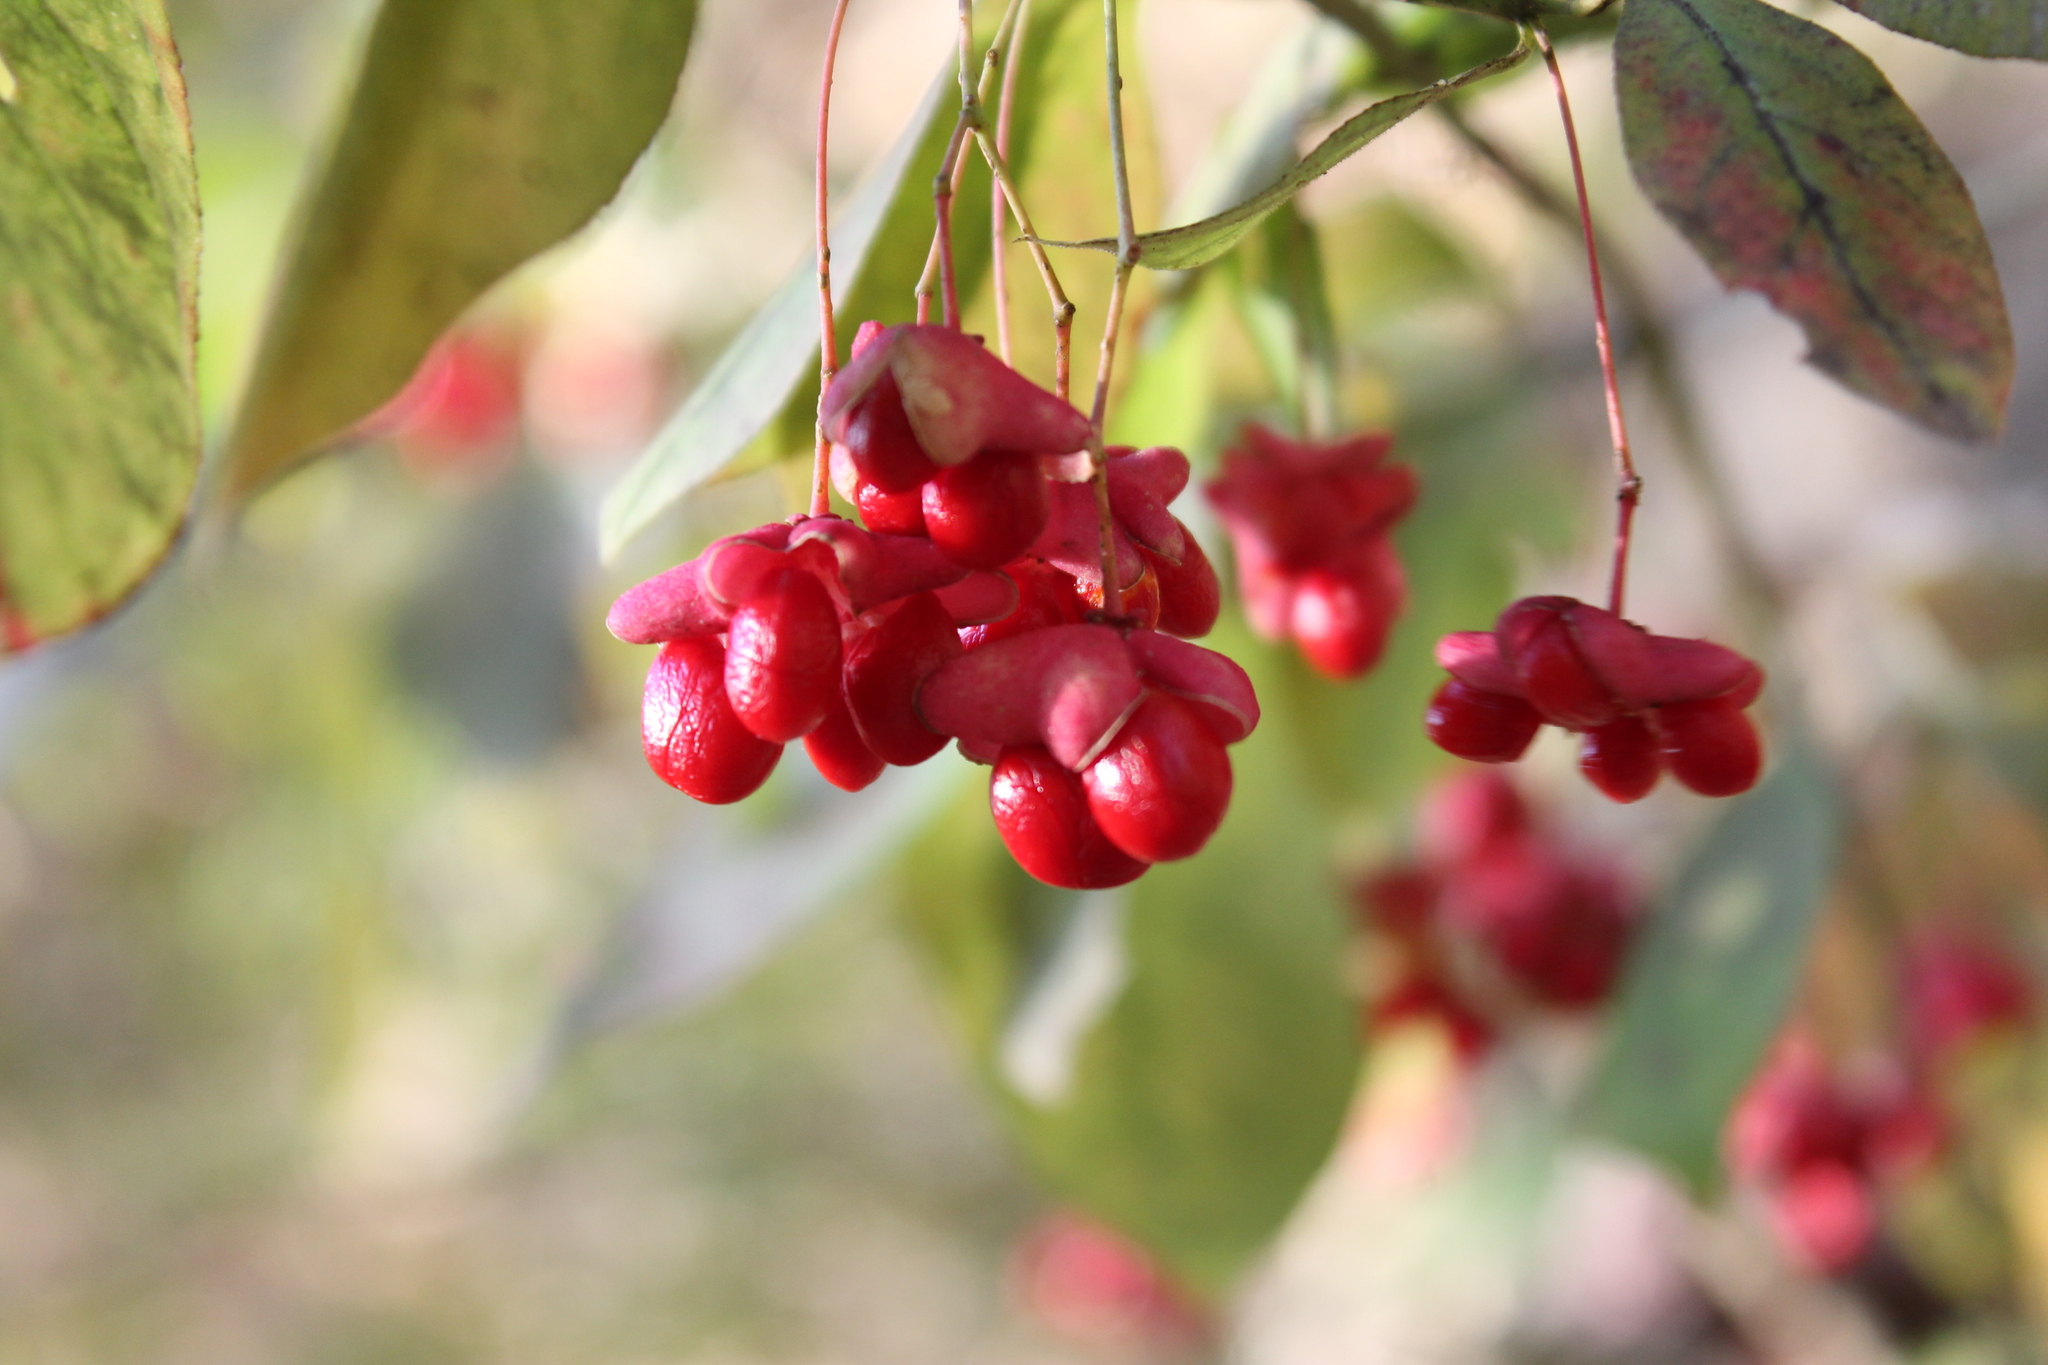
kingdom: Plantae
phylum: Tracheophyta
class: Magnoliopsida
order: Celastrales
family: Celastraceae
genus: Euonymus
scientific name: Euonymus atropurpureus
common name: Eastern wahoo
